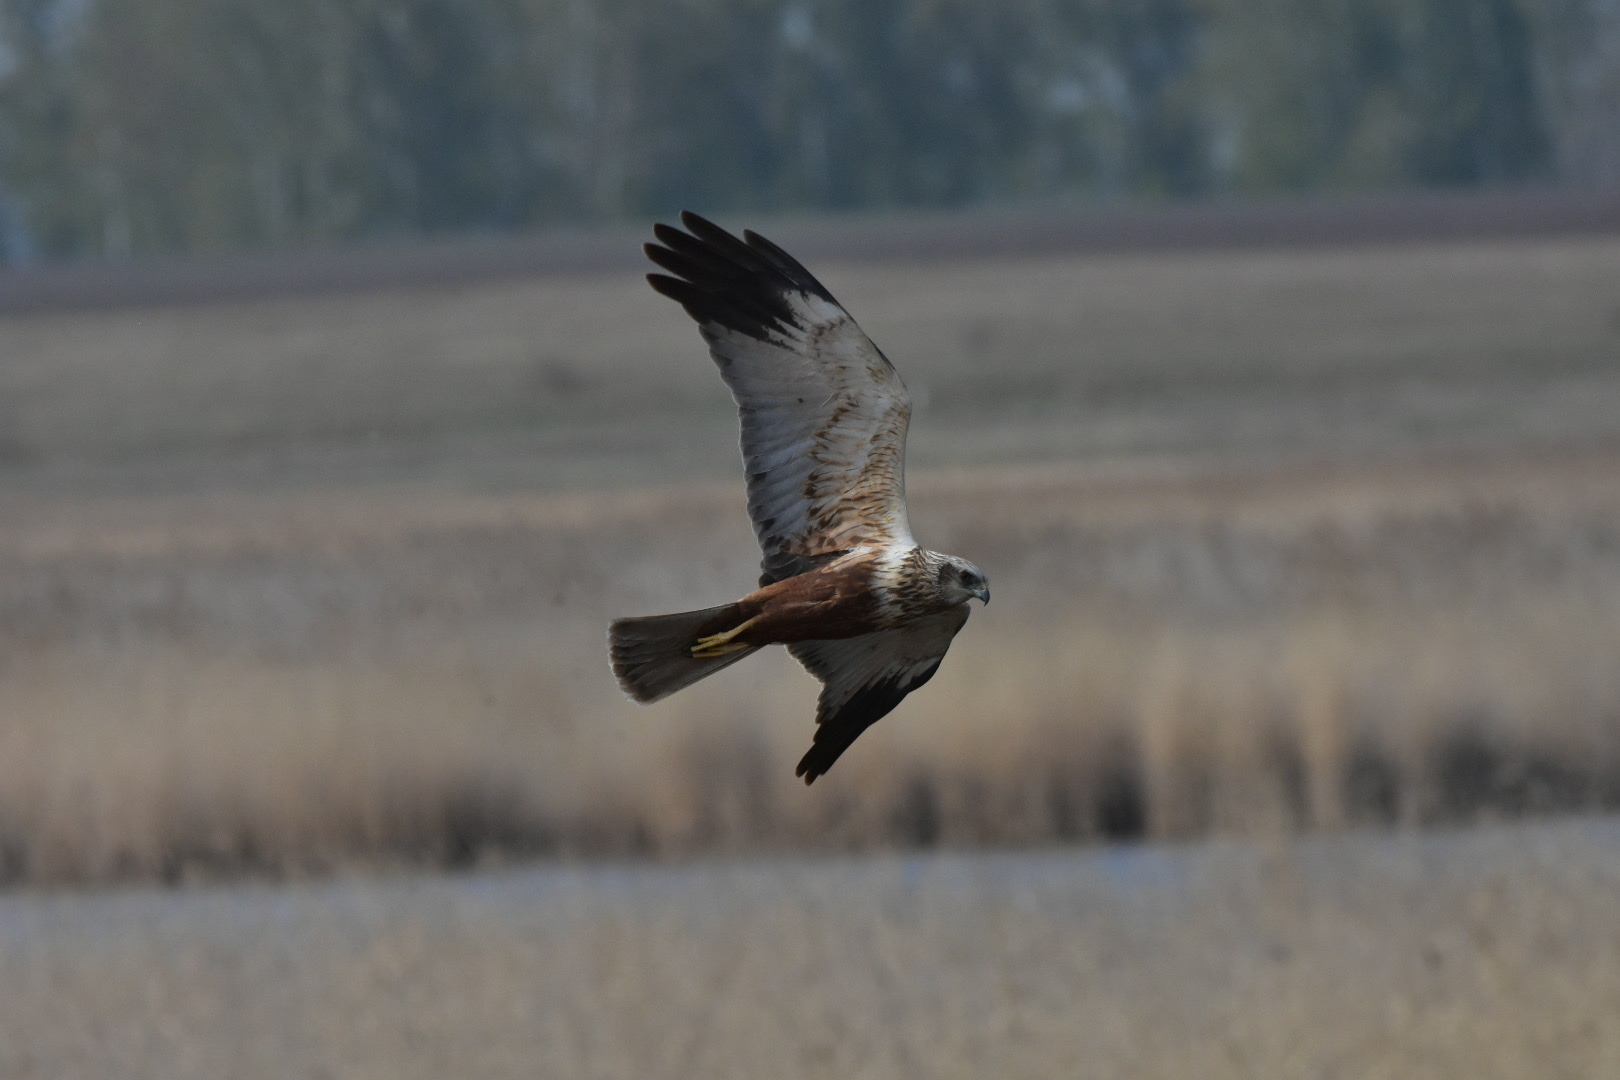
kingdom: Animalia
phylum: Chordata
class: Aves
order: Accipitriformes
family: Accipitridae
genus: Circus
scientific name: Circus aeruginosus
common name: Western marsh harrier
